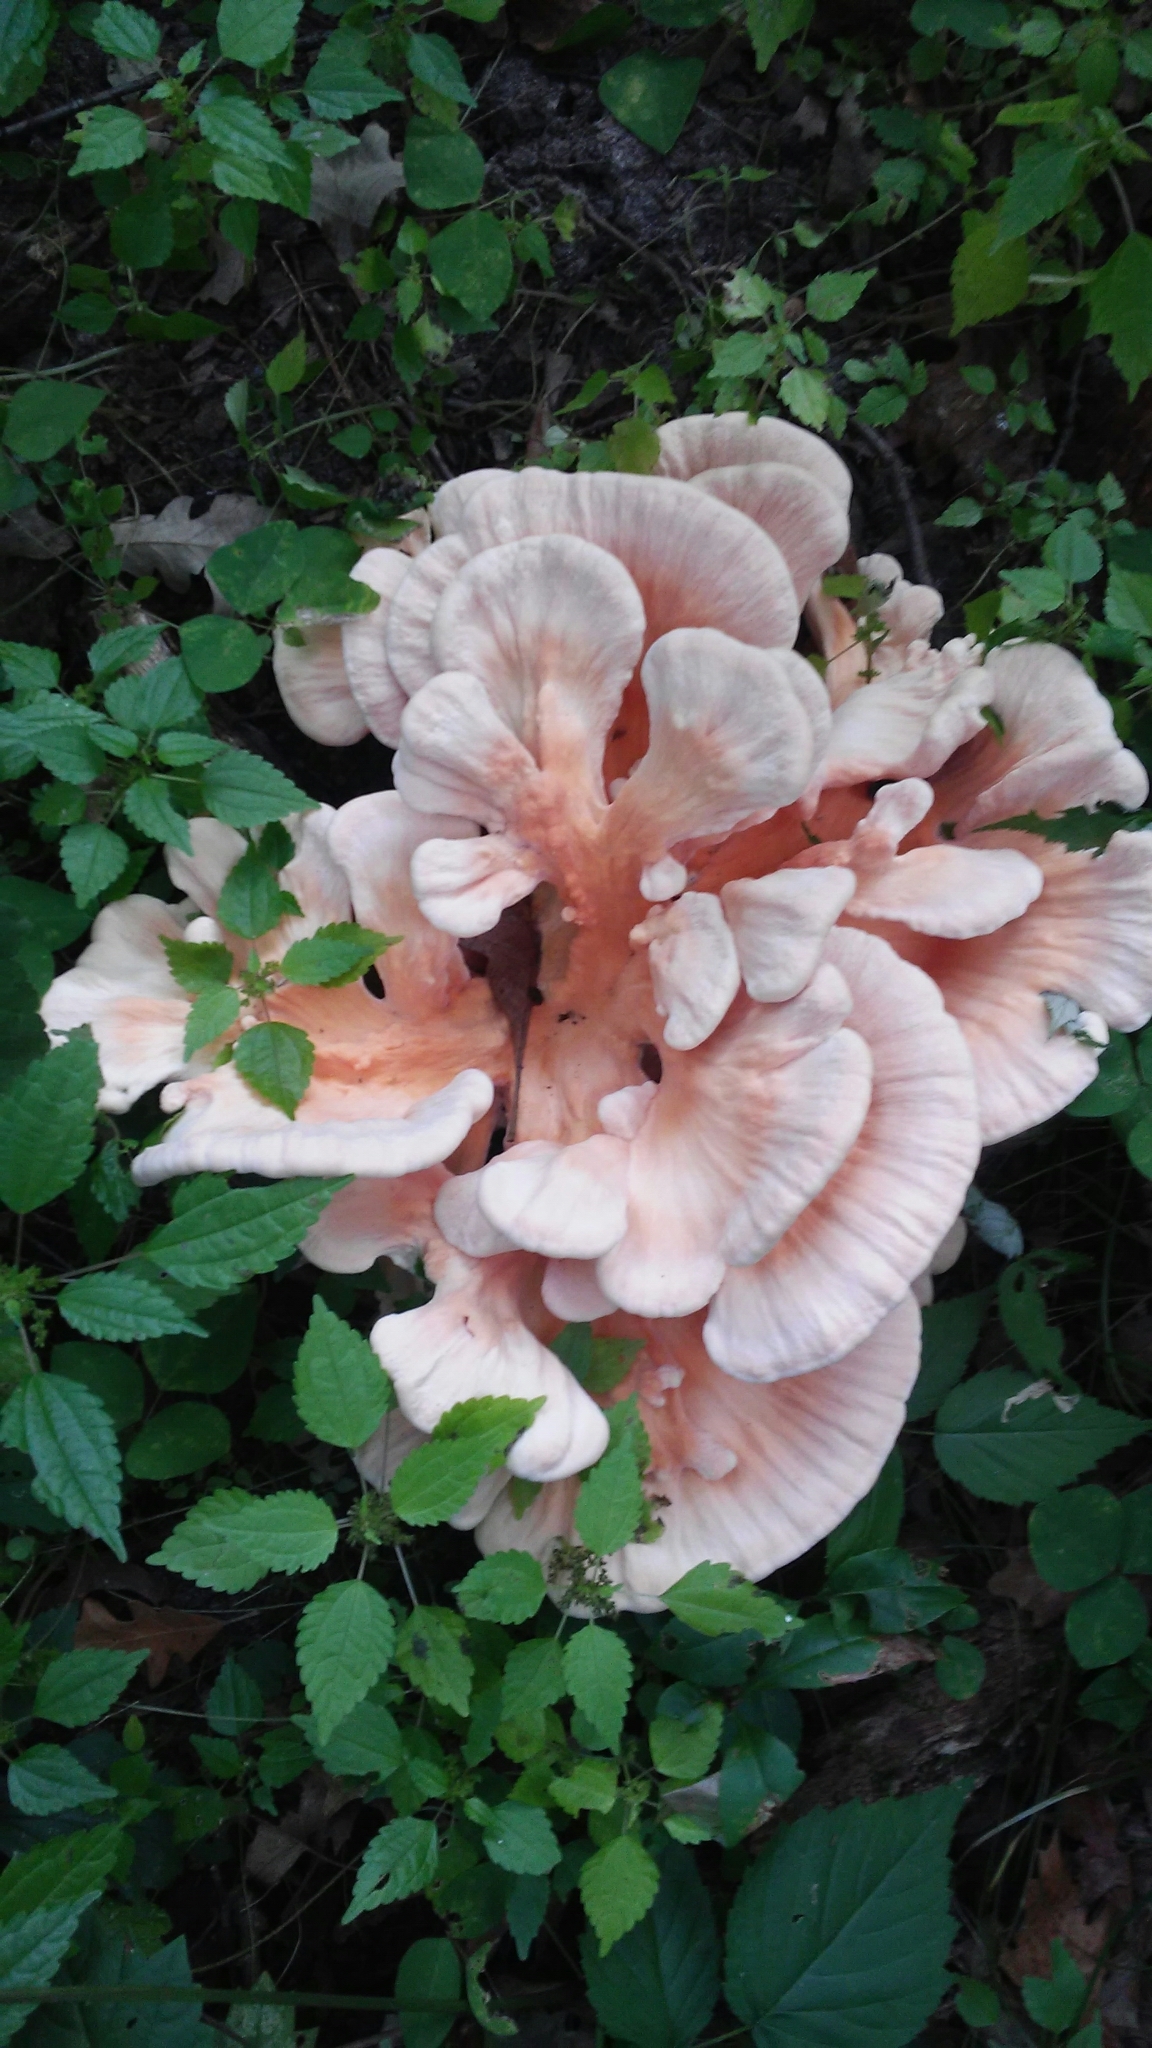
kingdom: Fungi
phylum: Basidiomycota
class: Agaricomycetes
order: Polyporales
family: Laetiporaceae
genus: Laetiporus
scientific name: Laetiporus sulphureus
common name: Chicken of the woods
